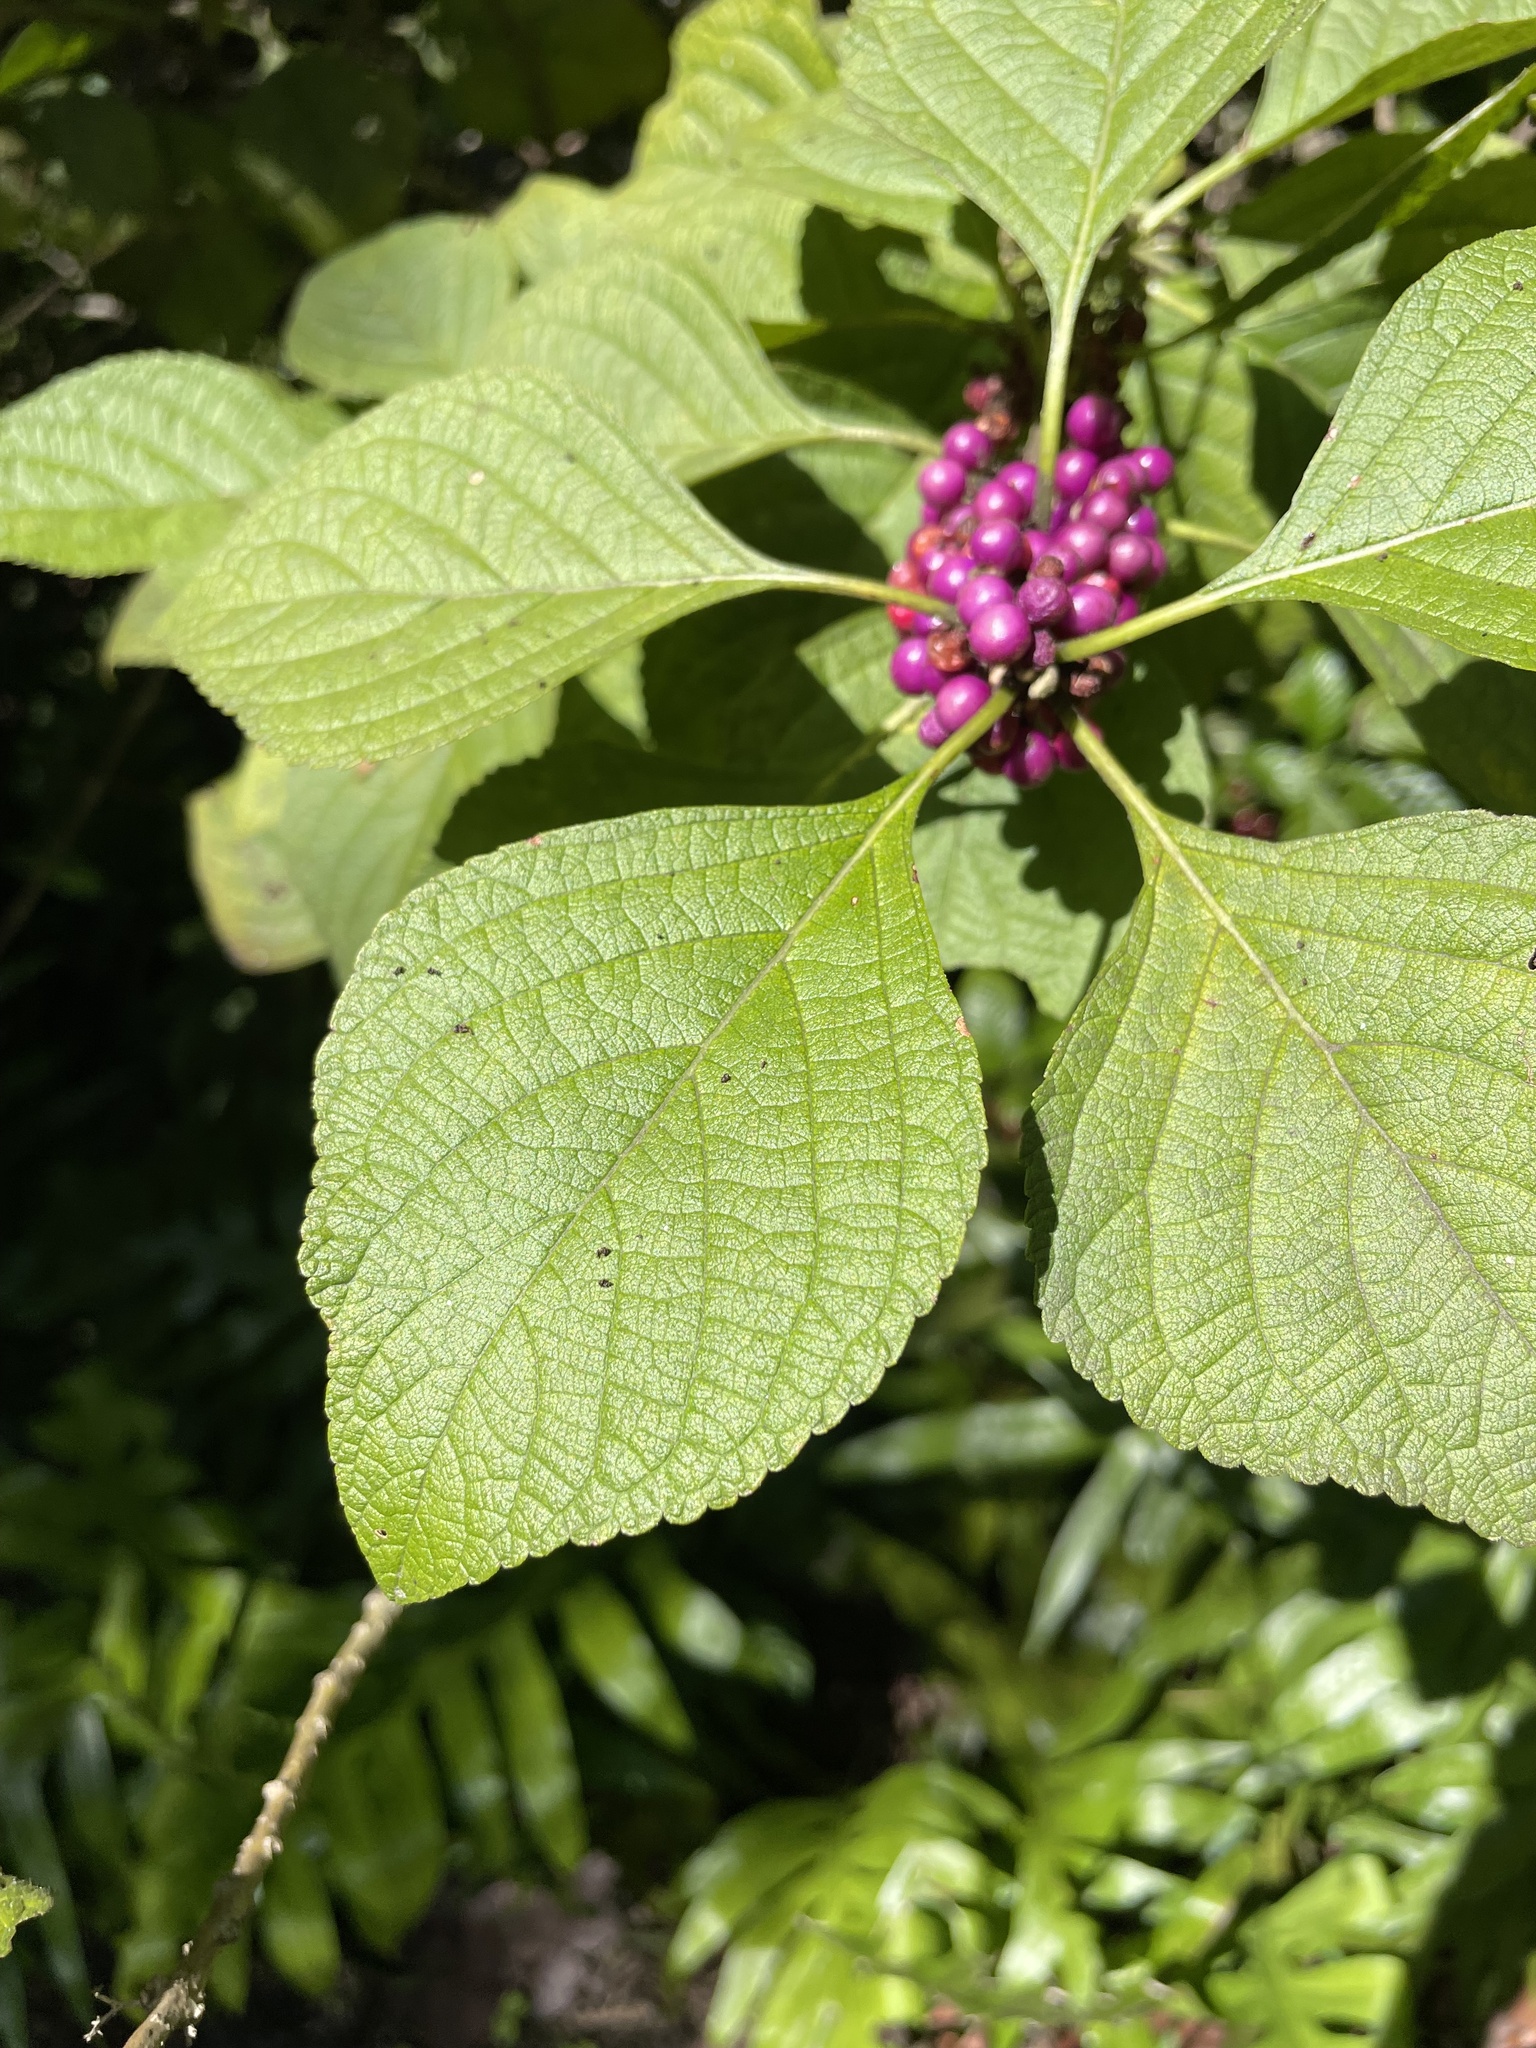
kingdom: Plantae
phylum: Tracheophyta
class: Magnoliopsida
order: Lamiales
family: Lamiaceae
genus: Callicarpa
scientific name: Callicarpa americana
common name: American beautyberry
